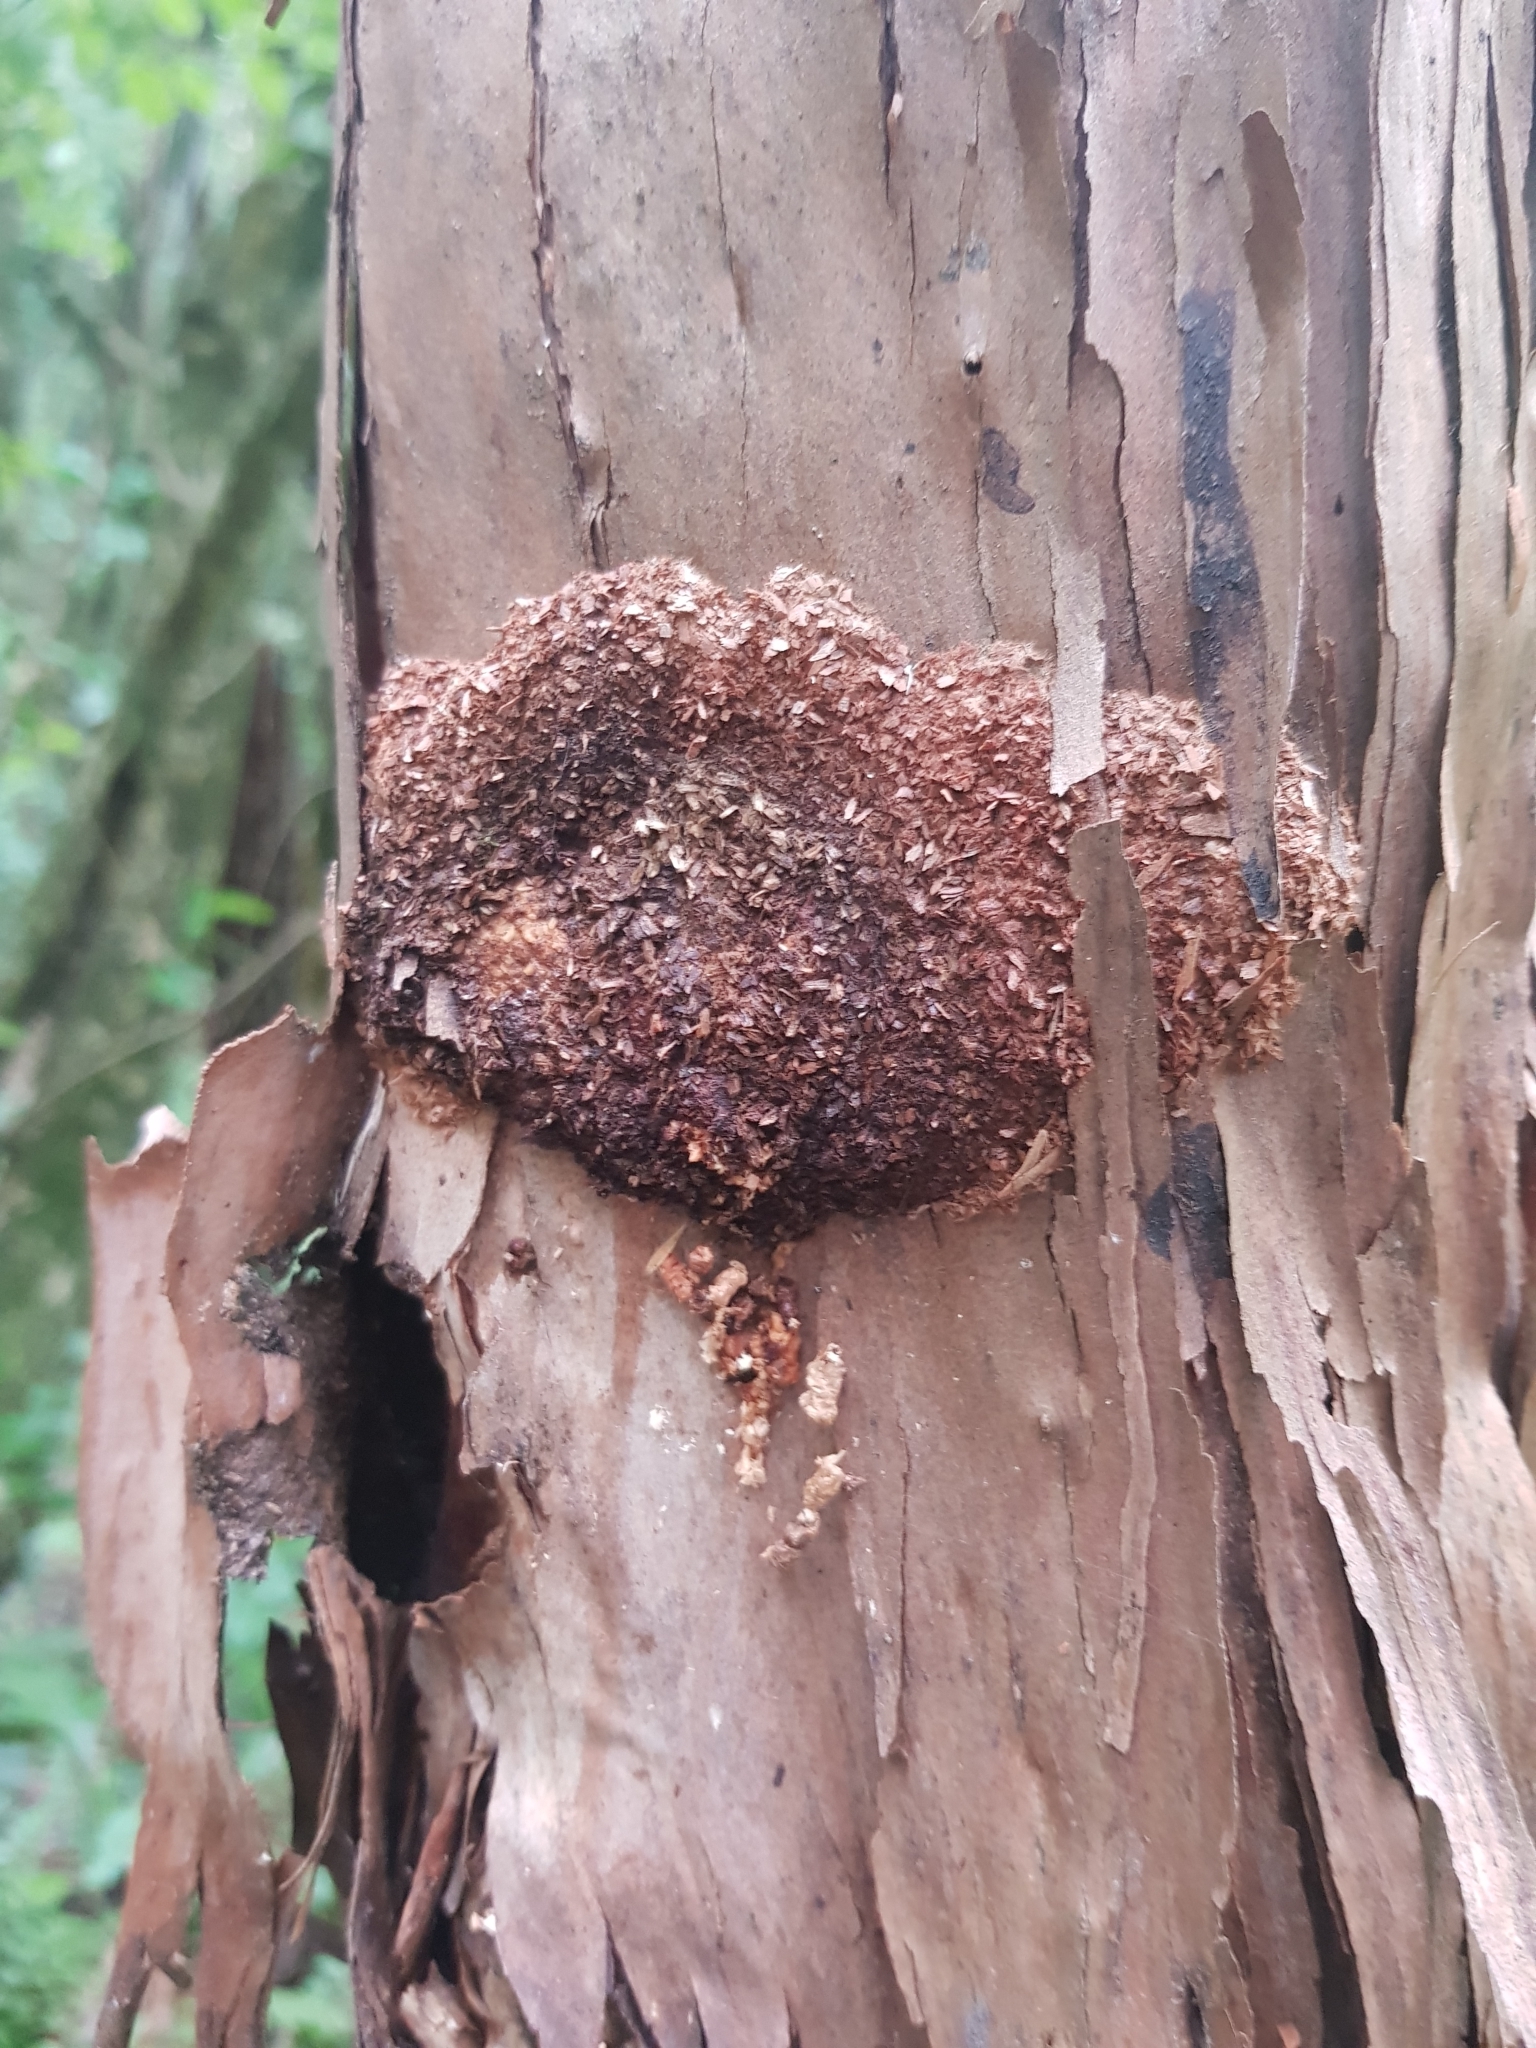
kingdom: Animalia
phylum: Arthropoda
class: Insecta
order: Lepidoptera
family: Hepialidae
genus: Aenetus
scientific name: Aenetus virescens
